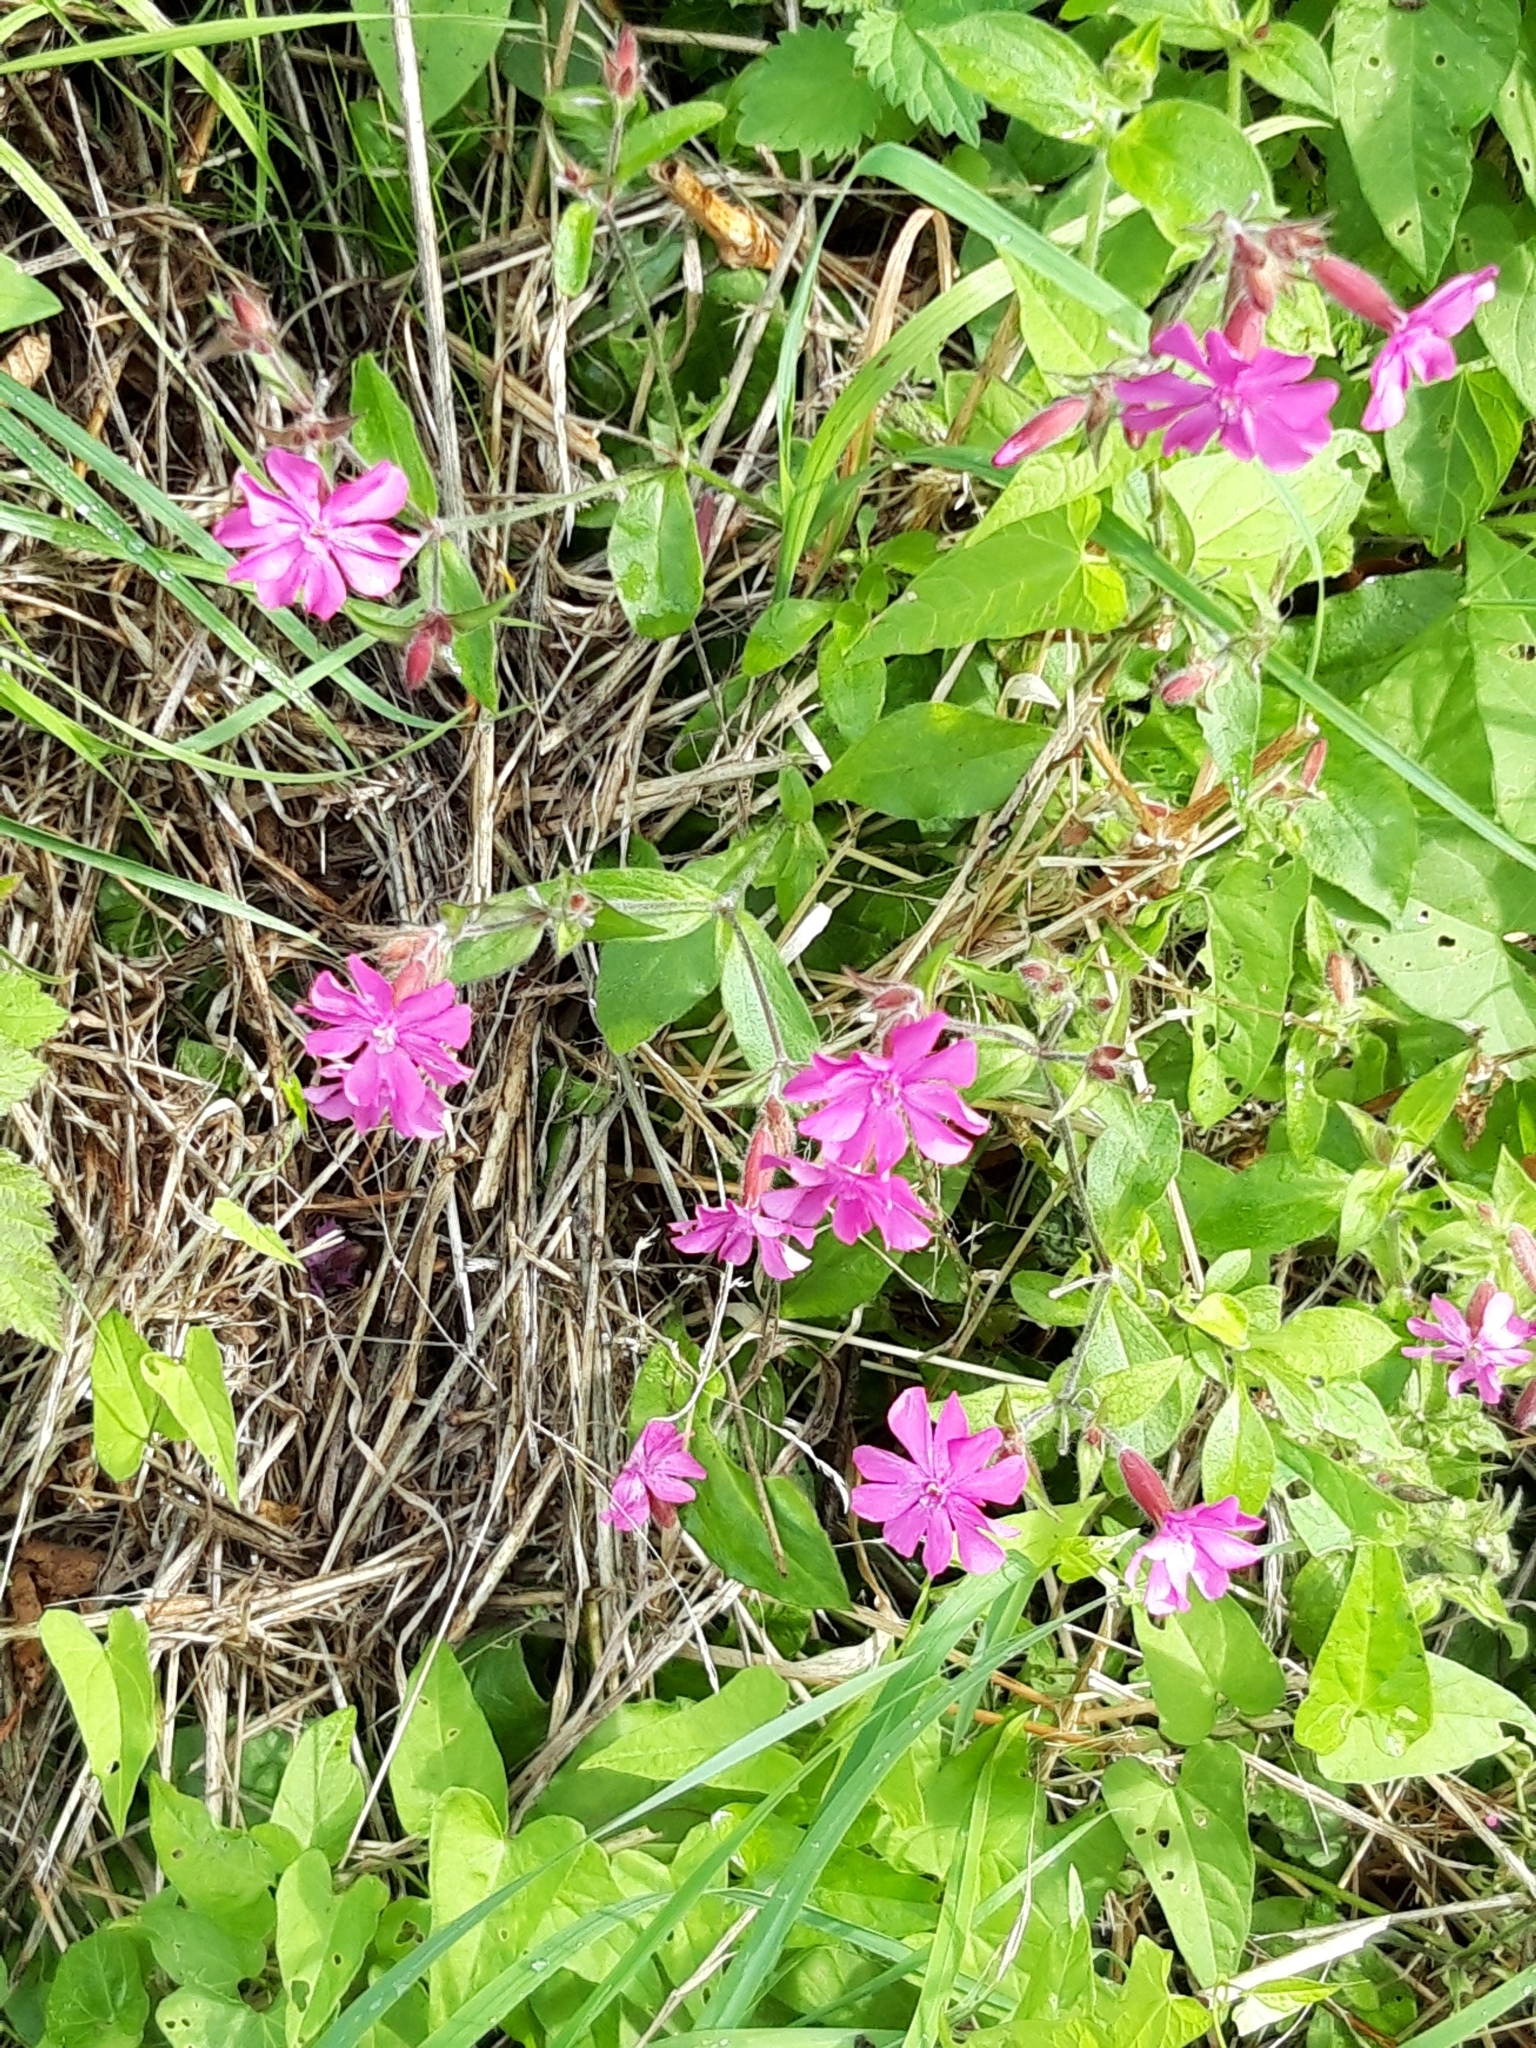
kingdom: Plantae
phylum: Tracheophyta
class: Magnoliopsida
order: Caryophyllales
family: Caryophyllaceae
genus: Silene
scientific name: Silene dioica
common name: Red campion
